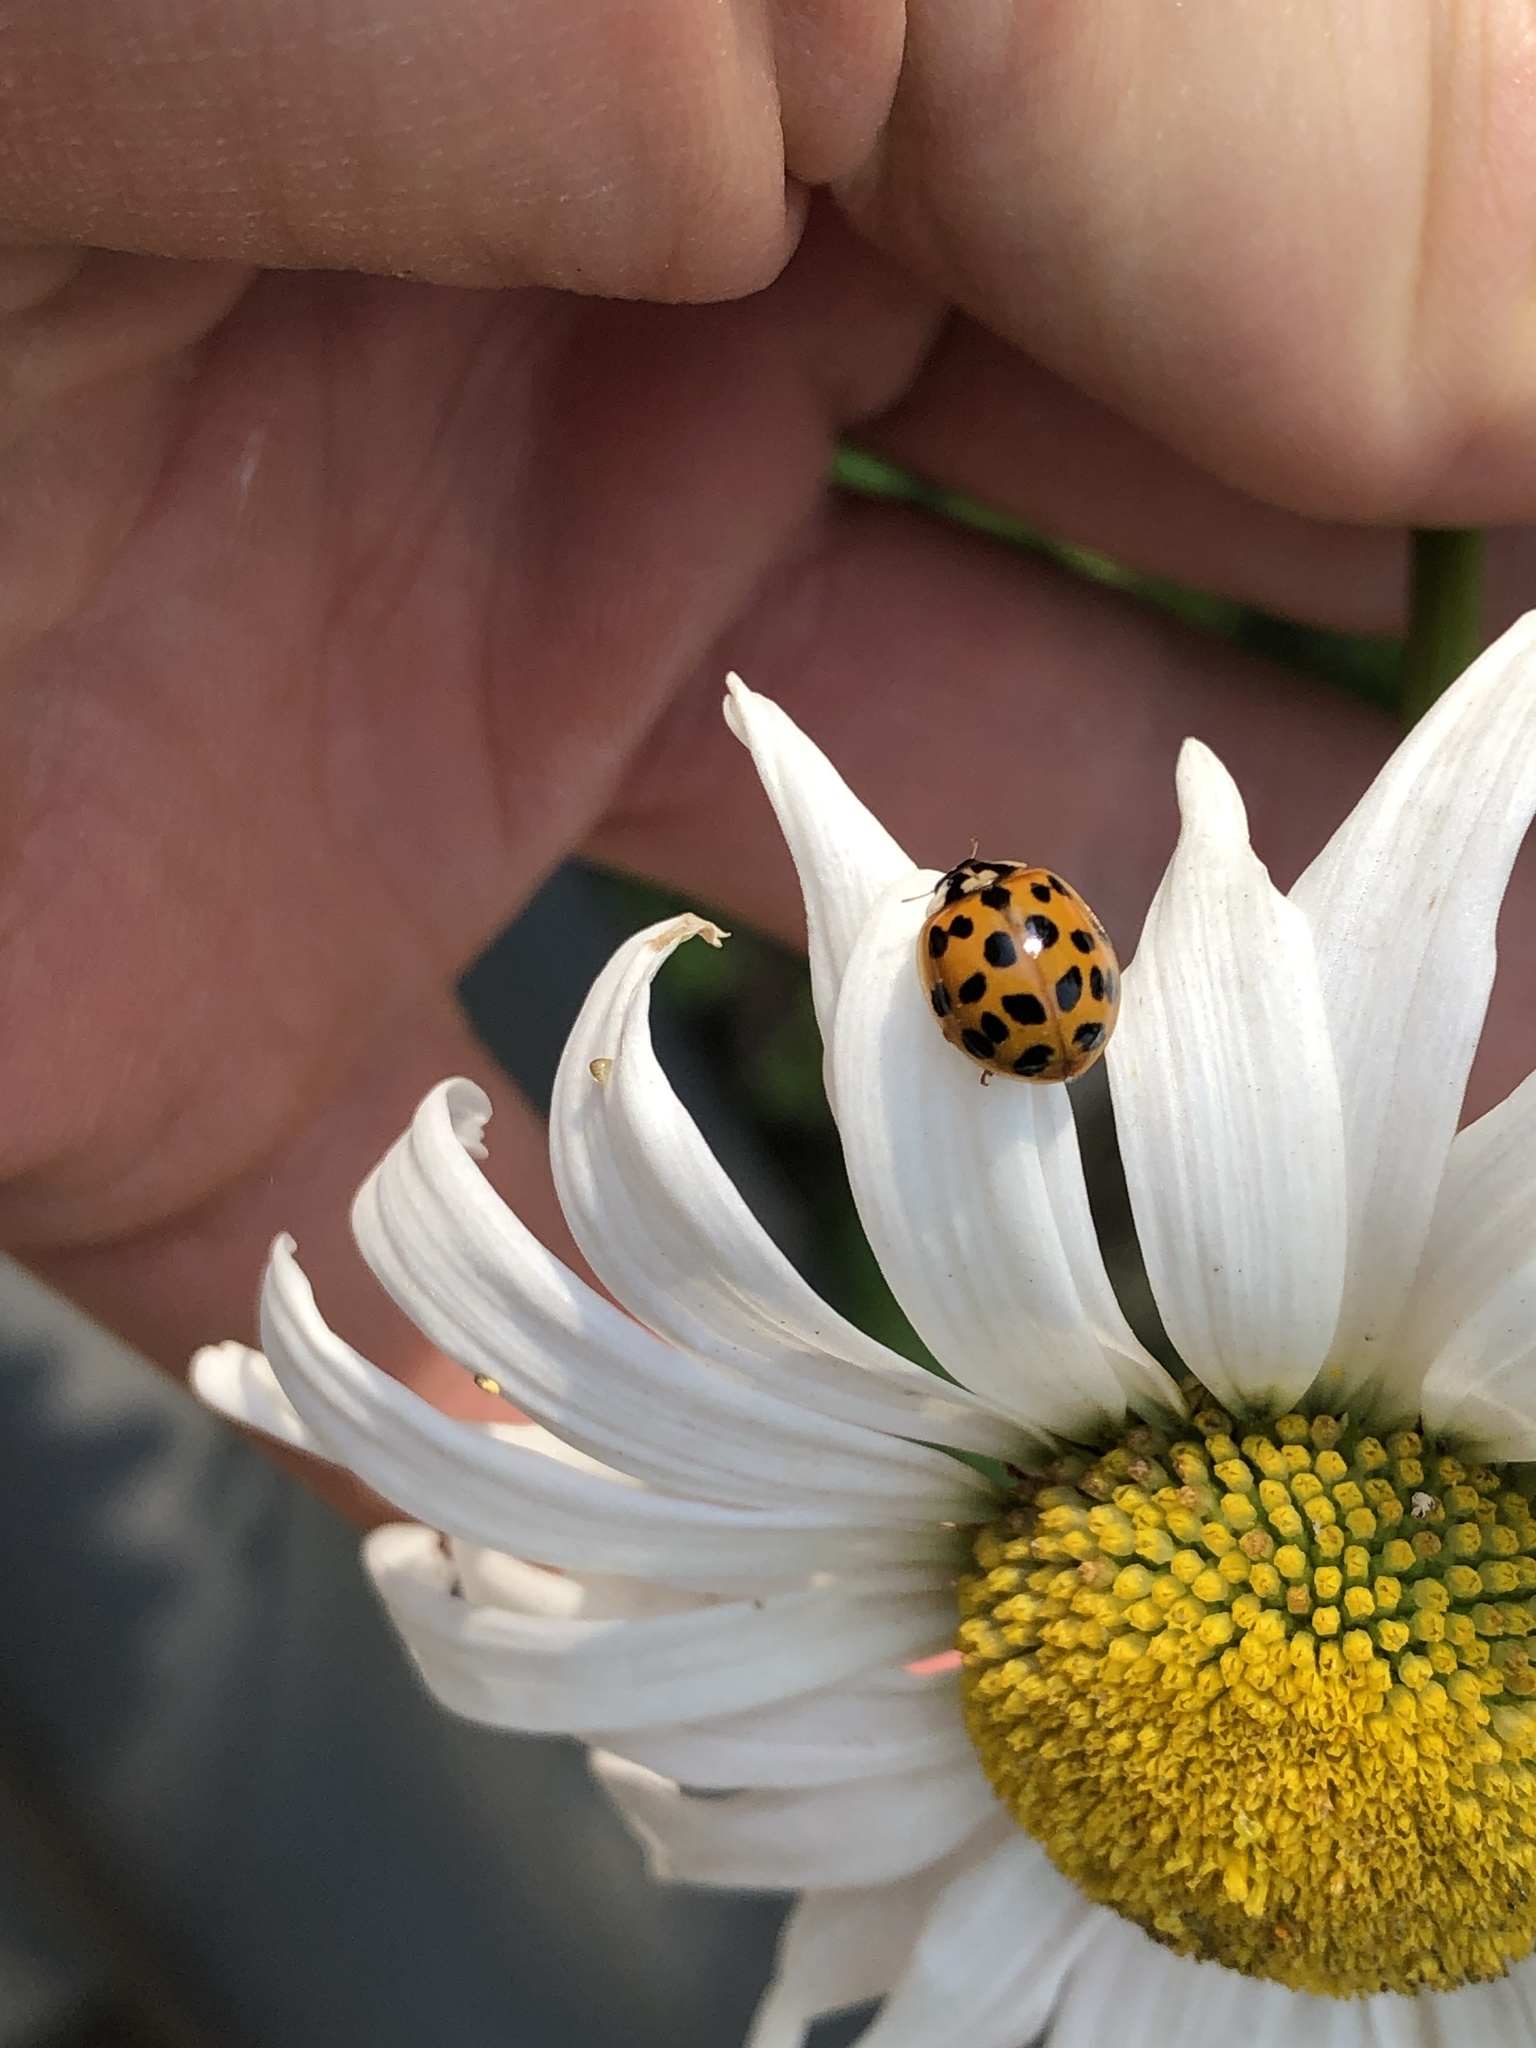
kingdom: Animalia
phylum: Arthropoda
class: Insecta
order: Coleoptera
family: Coccinellidae
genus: Harmonia
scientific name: Harmonia axyridis
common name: Harlequin ladybird
